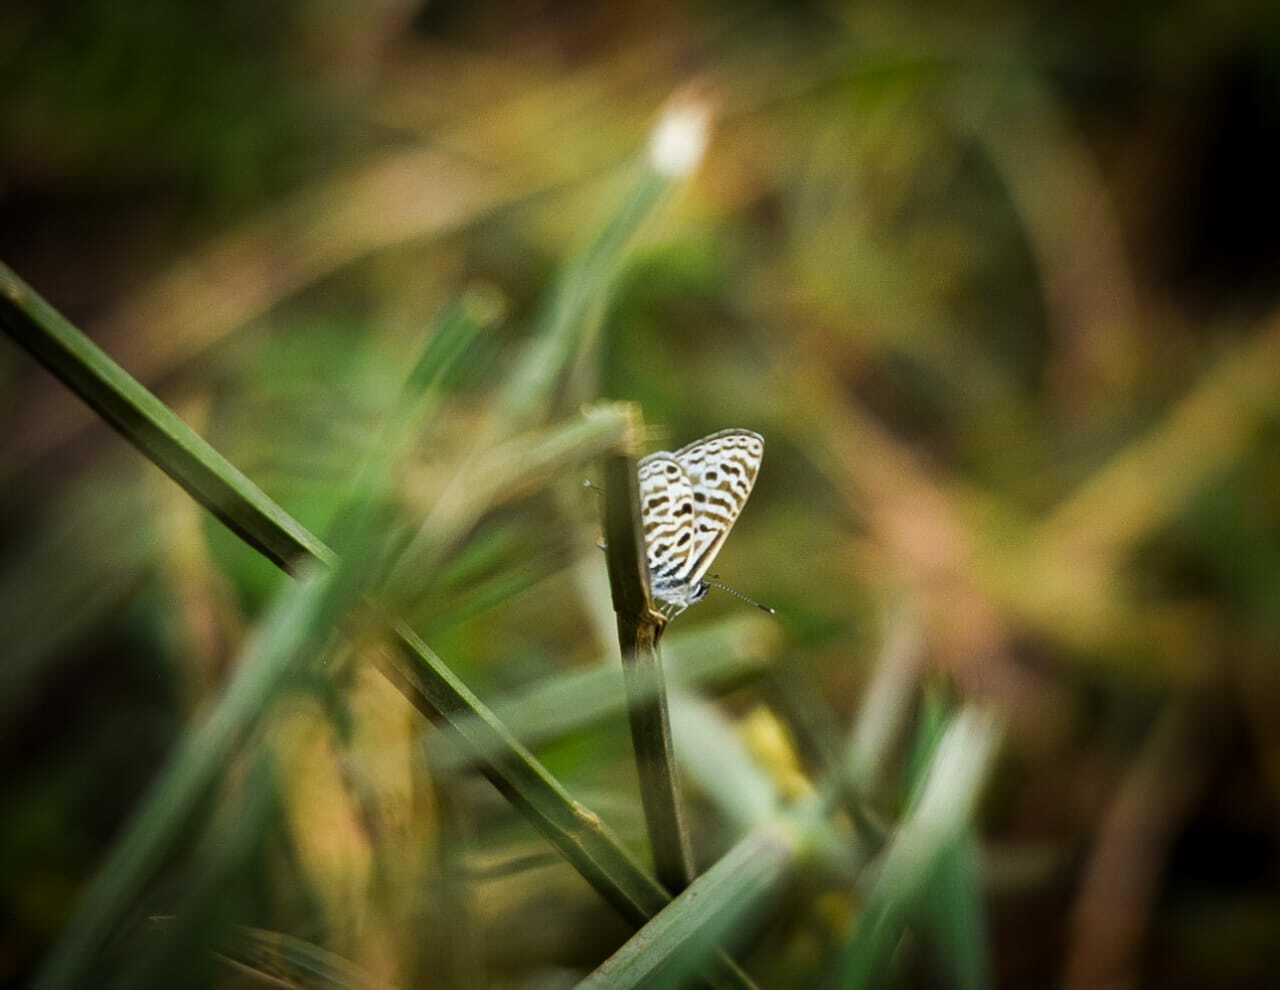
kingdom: Animalia
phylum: Arthropoda
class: Insecta
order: Lepidoptera
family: Lycaenidae
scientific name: Lycaenidae
